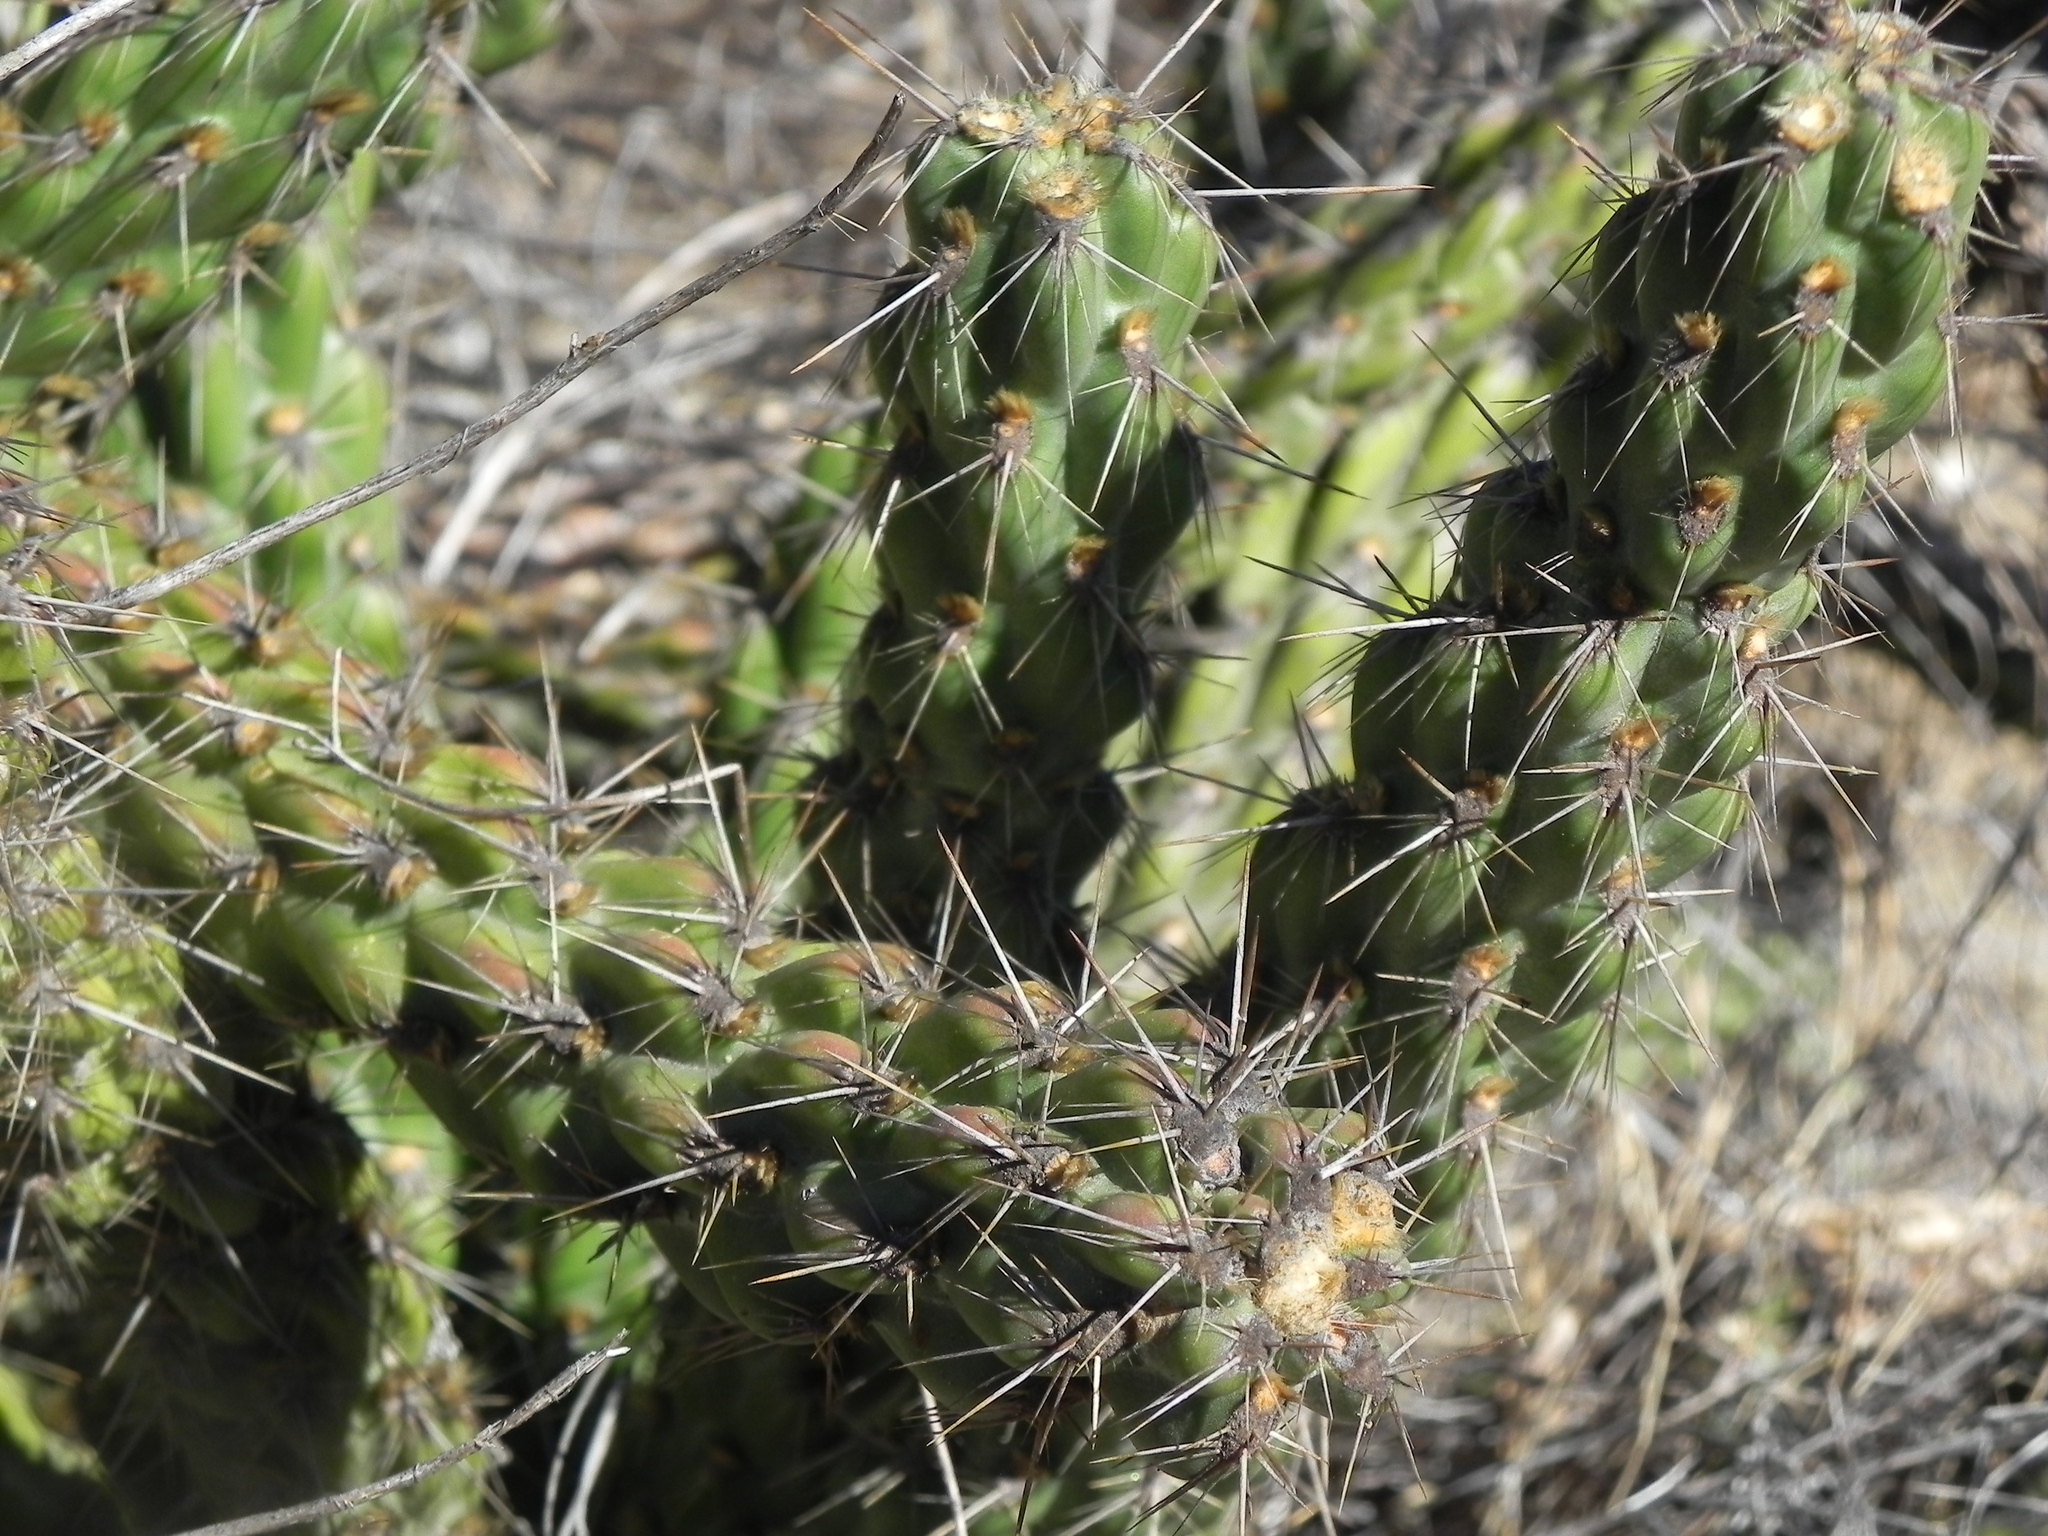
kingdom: Plantae
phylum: Tracheophyta
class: Magnoliopsida
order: Caryophyllales
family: Cactaceae
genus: Cylindropuntia
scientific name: Cylindropuntia californica
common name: Snake cholla
